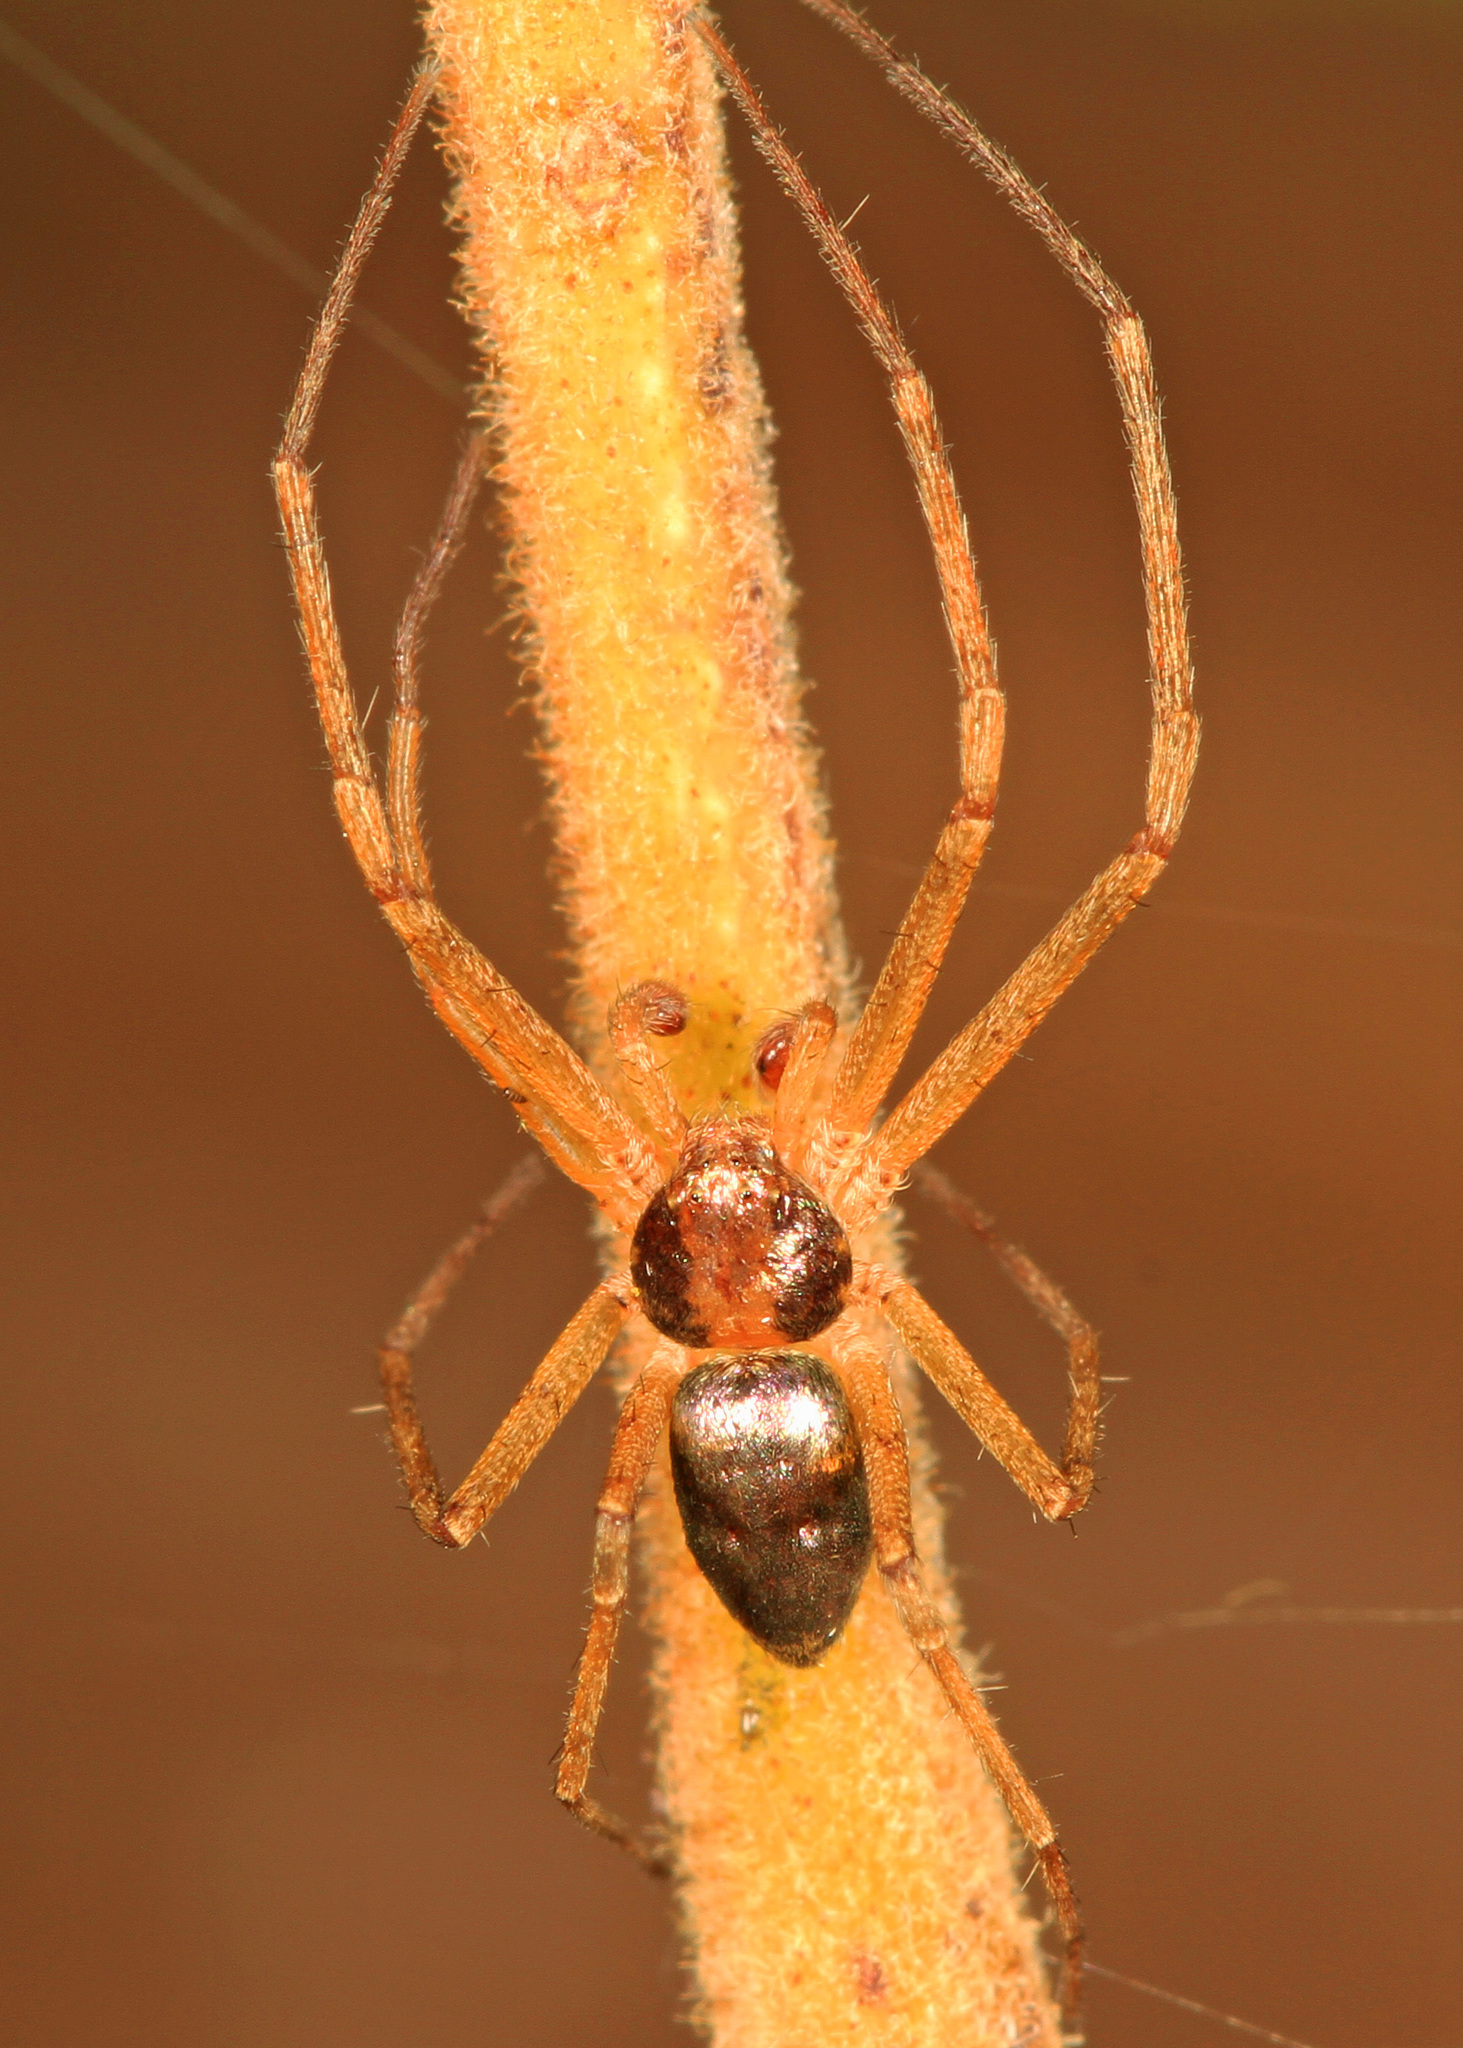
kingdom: Animalia
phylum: Arthropoda
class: Arachnida
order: Araneae
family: Philodromidae
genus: Philodromus
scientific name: Philodromus marxi
